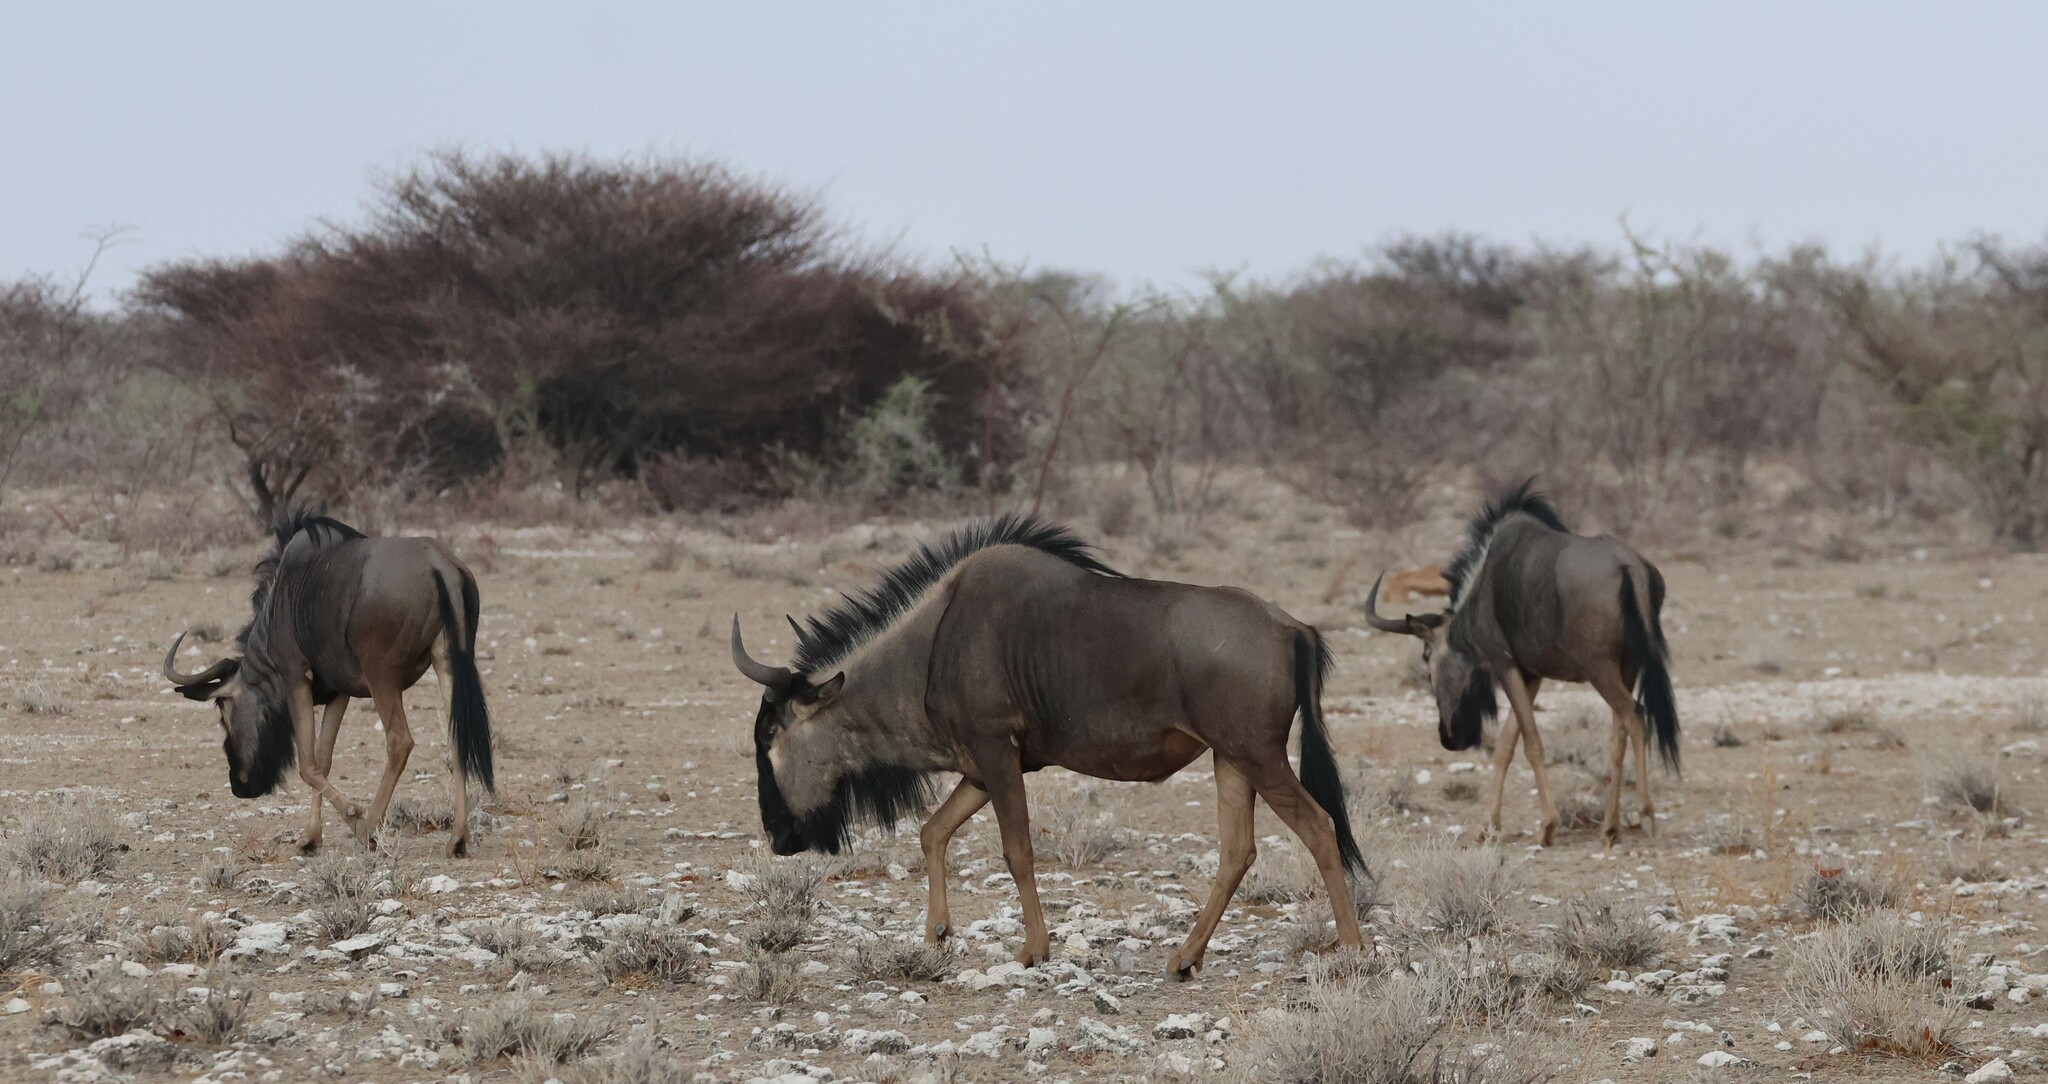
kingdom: Animalia
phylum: Chordata
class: Mammalia
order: Artiodactyla
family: Bovidae
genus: Connochaetes
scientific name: Connochaetes taurinus
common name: Blue wildebeest
